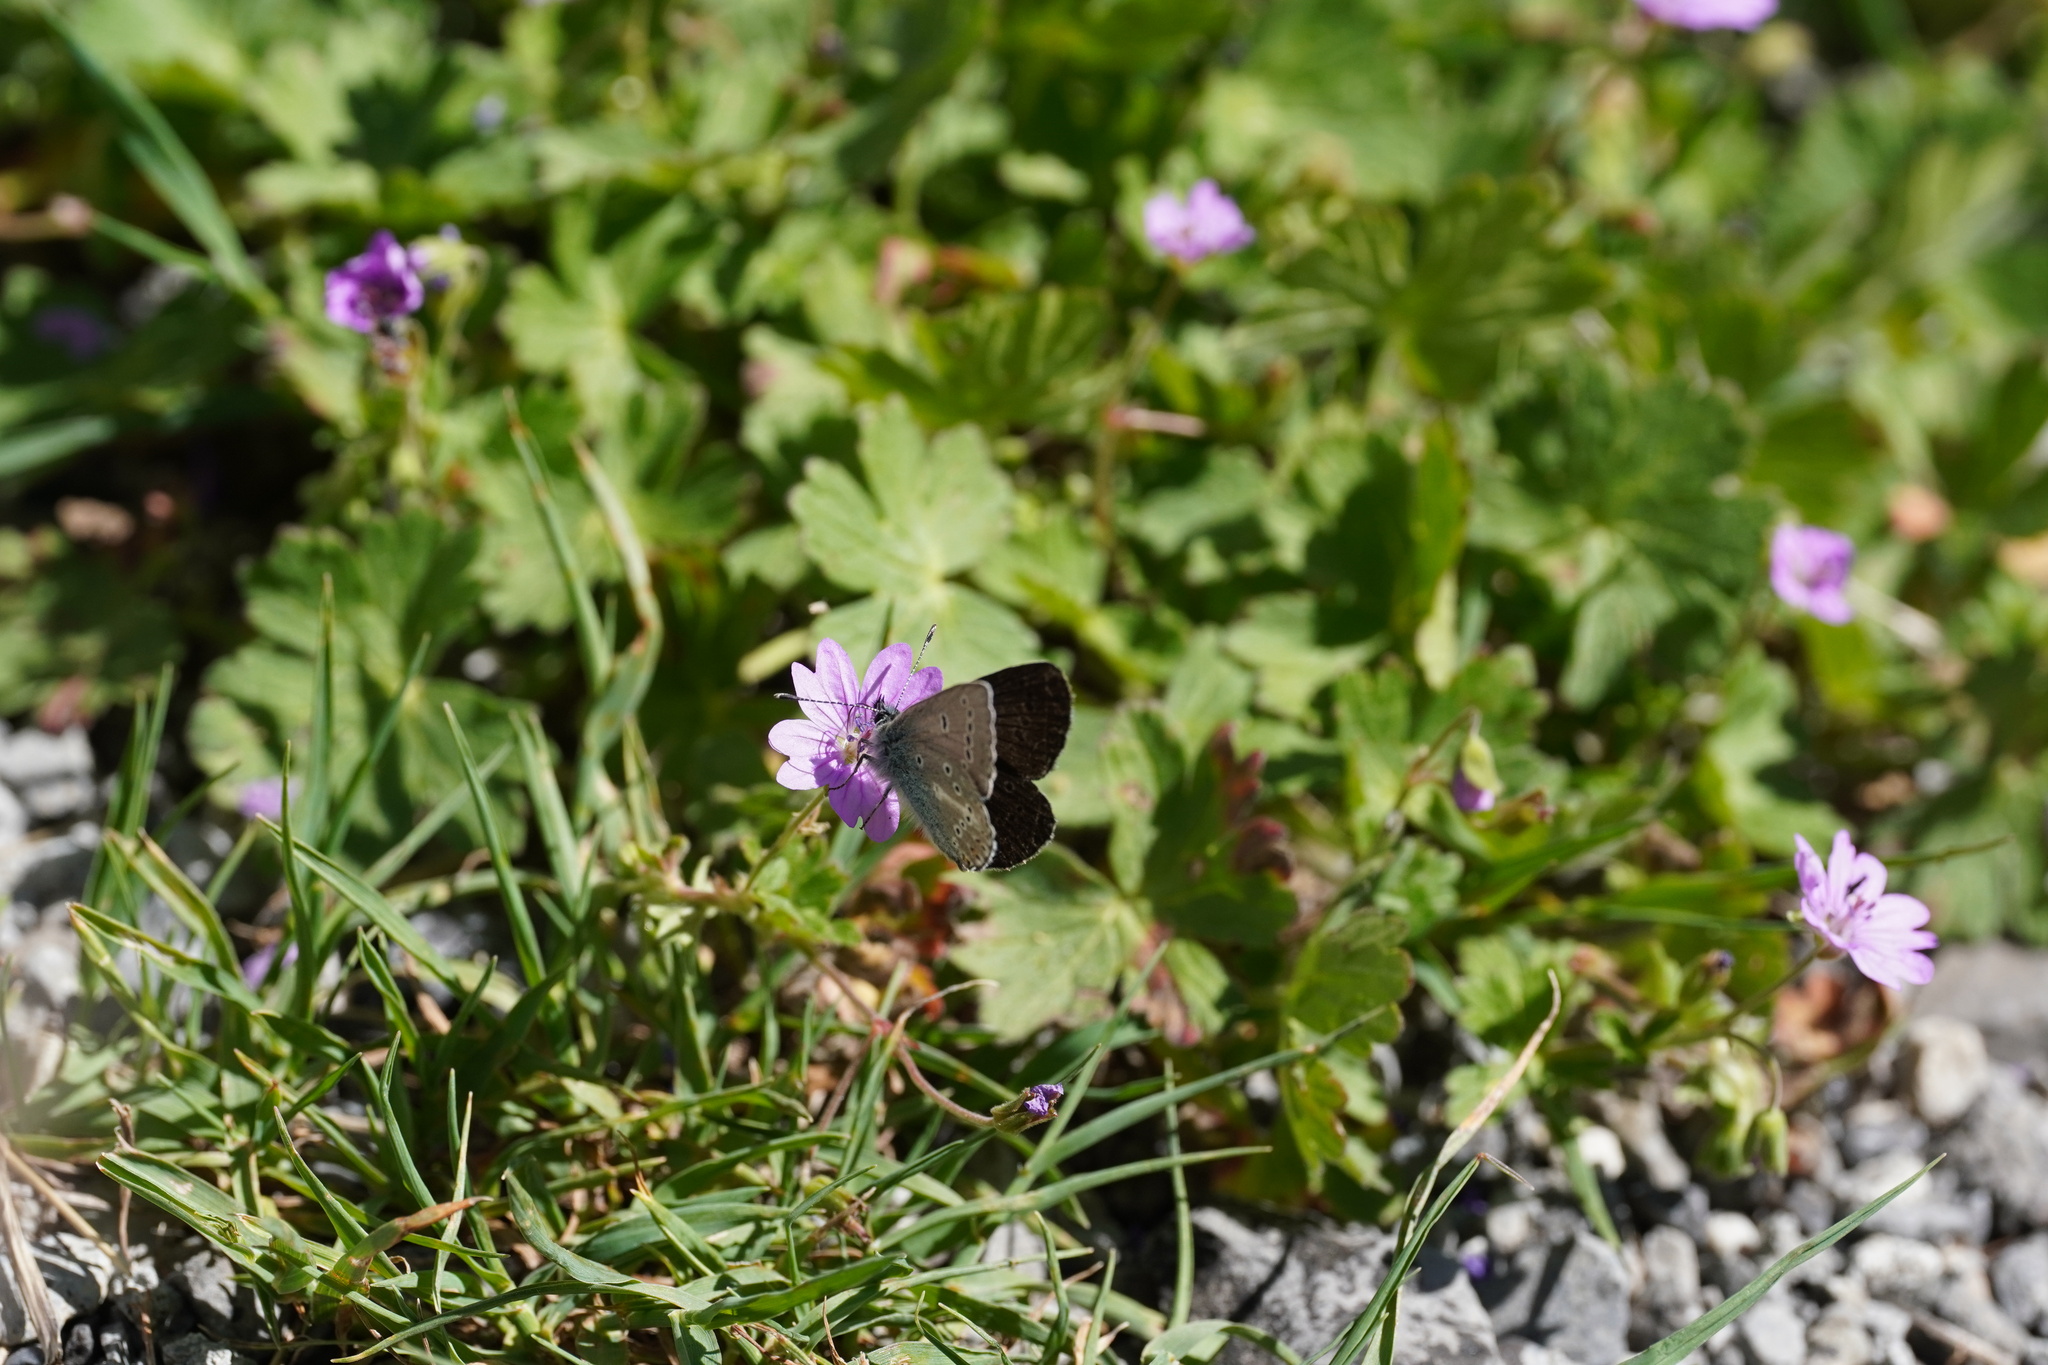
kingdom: Animalia
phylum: Arthropoda
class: Insecta
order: Lepidoptera
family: Lycaenidae
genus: Eumedonia
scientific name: Eumedonia eumedon
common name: Geranium argus
